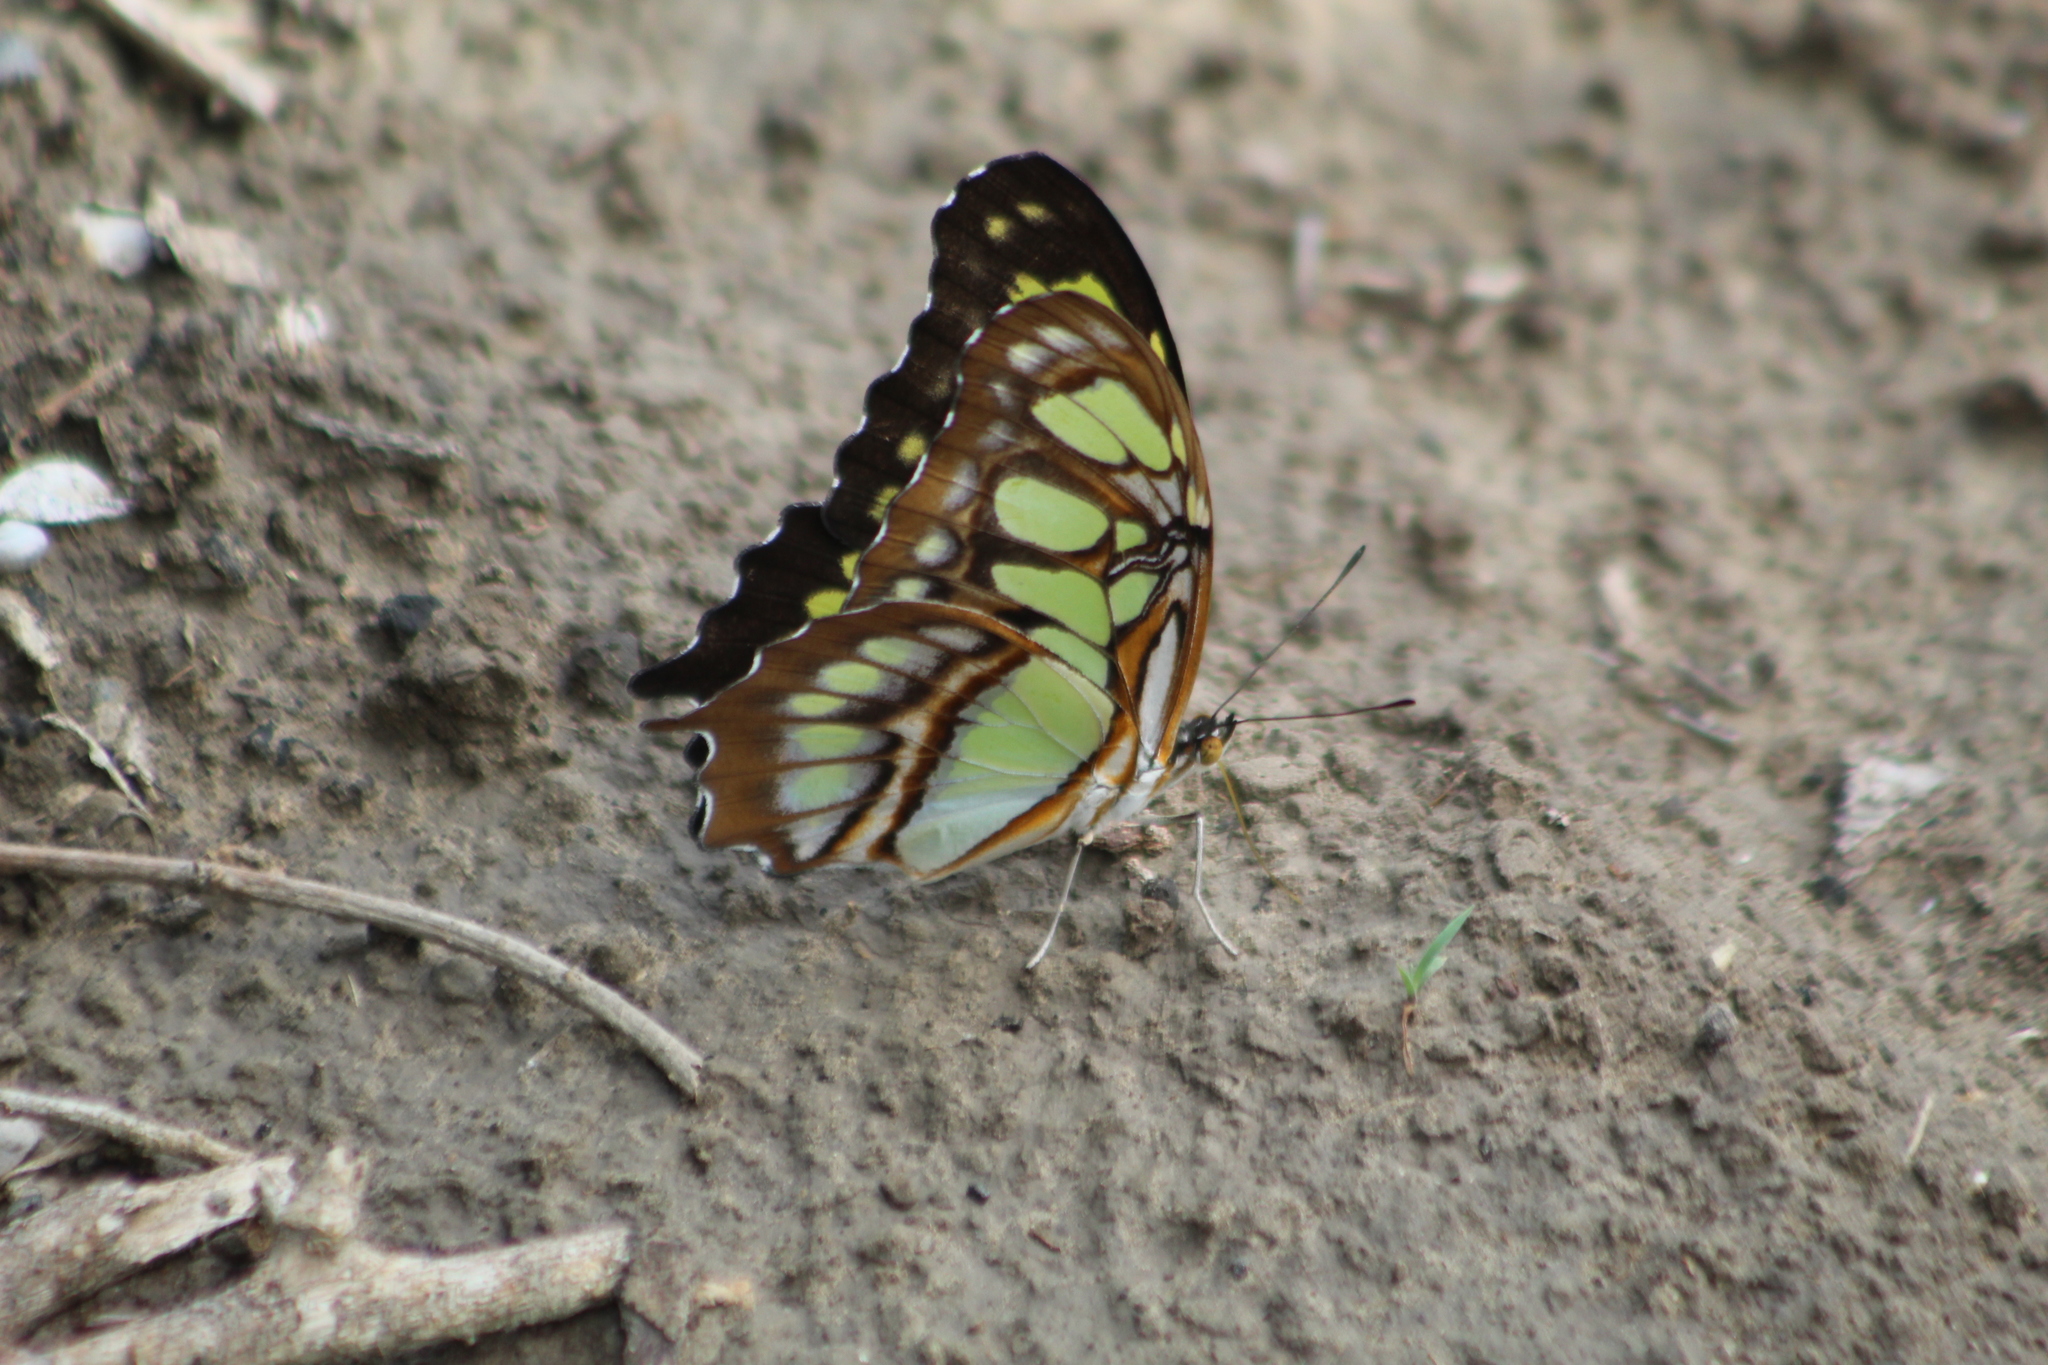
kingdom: Animalia
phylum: Arthropoda
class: Insecta
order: Lepidoptera
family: Nymphalidae
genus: Siproeta
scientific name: Siproeta stelenes
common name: Malachite
